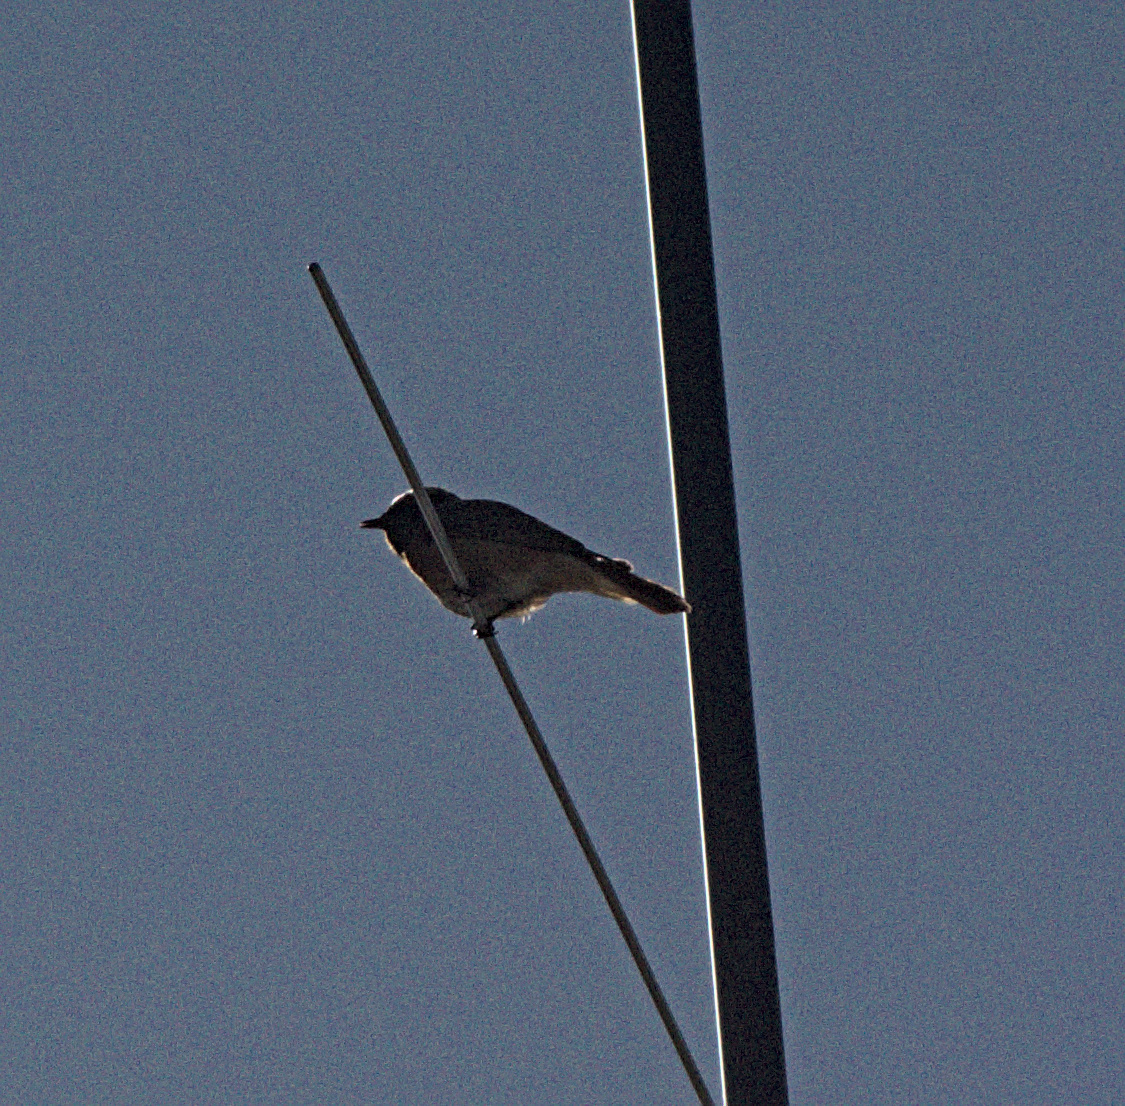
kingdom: Animalia
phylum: Chordata
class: Aves
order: Passeriformes
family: Muscicapidae
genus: Phoenicurus
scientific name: Phoenicurus phoenicurus
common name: Common redstart
